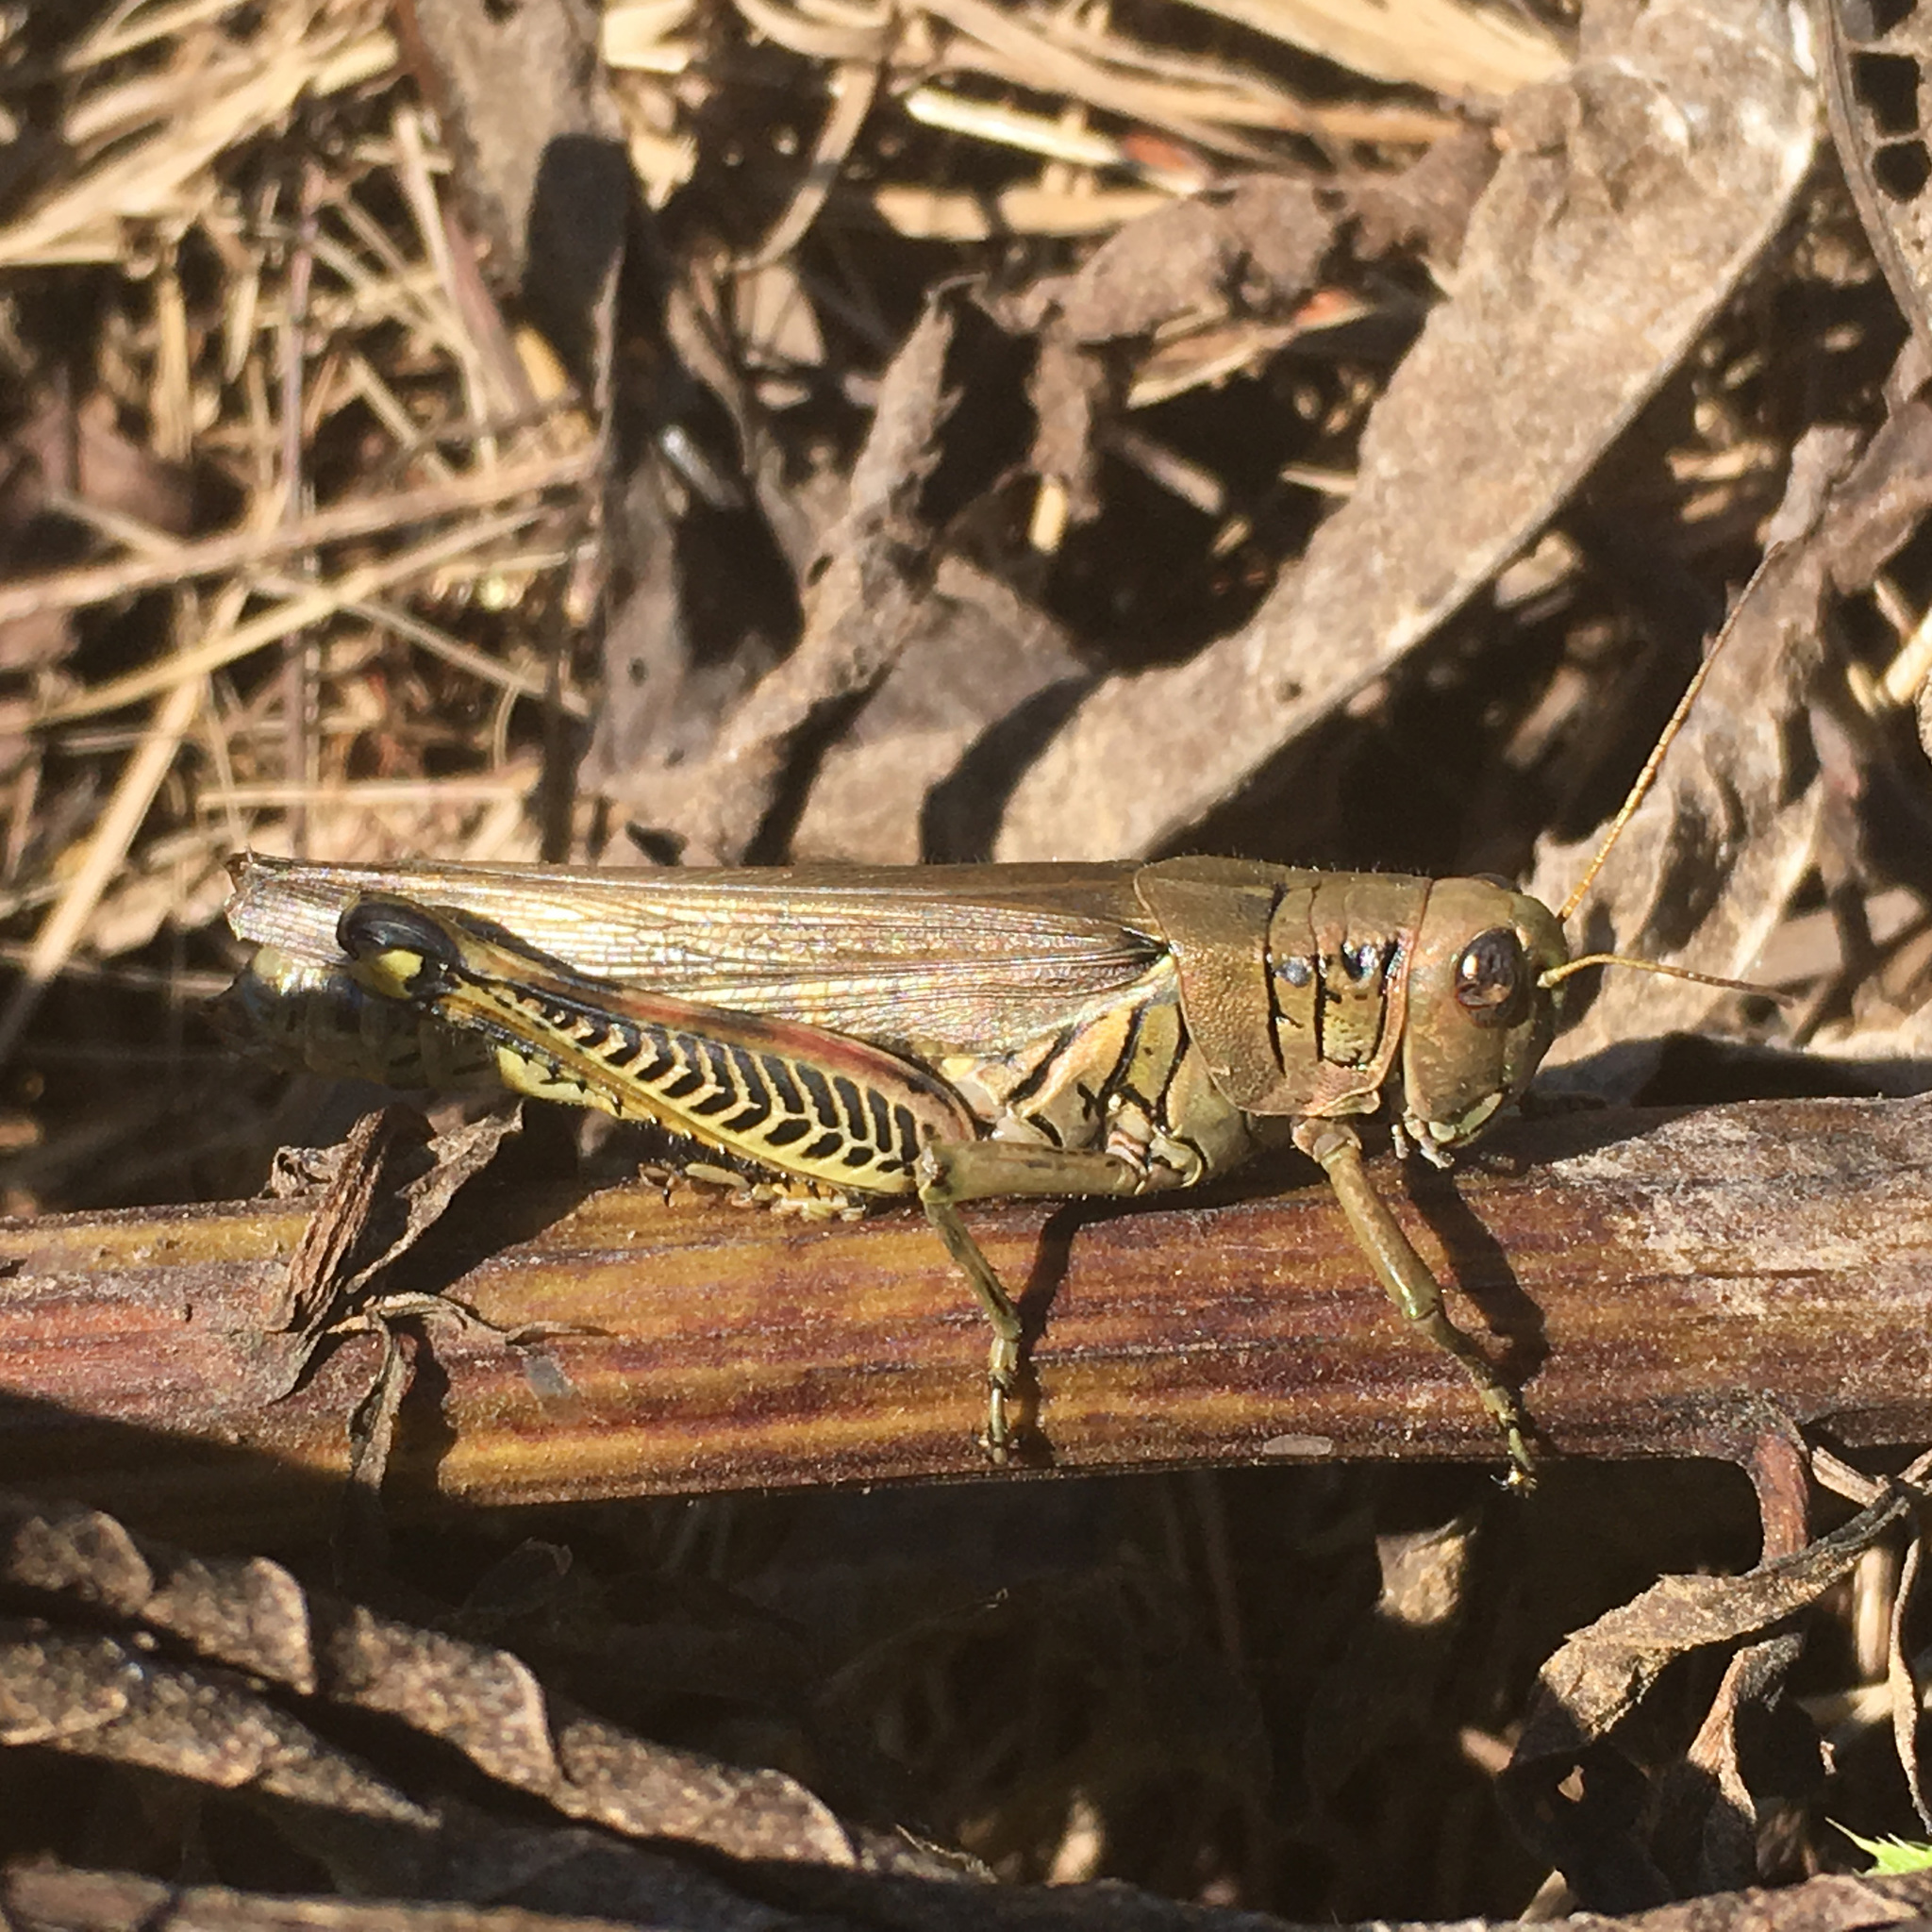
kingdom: Animalia
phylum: Arthropoda
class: Insecta
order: Orthoptera
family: Acrididae
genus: Melanoplus
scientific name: Melanoplus differentialis
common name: Differential grasshopper
